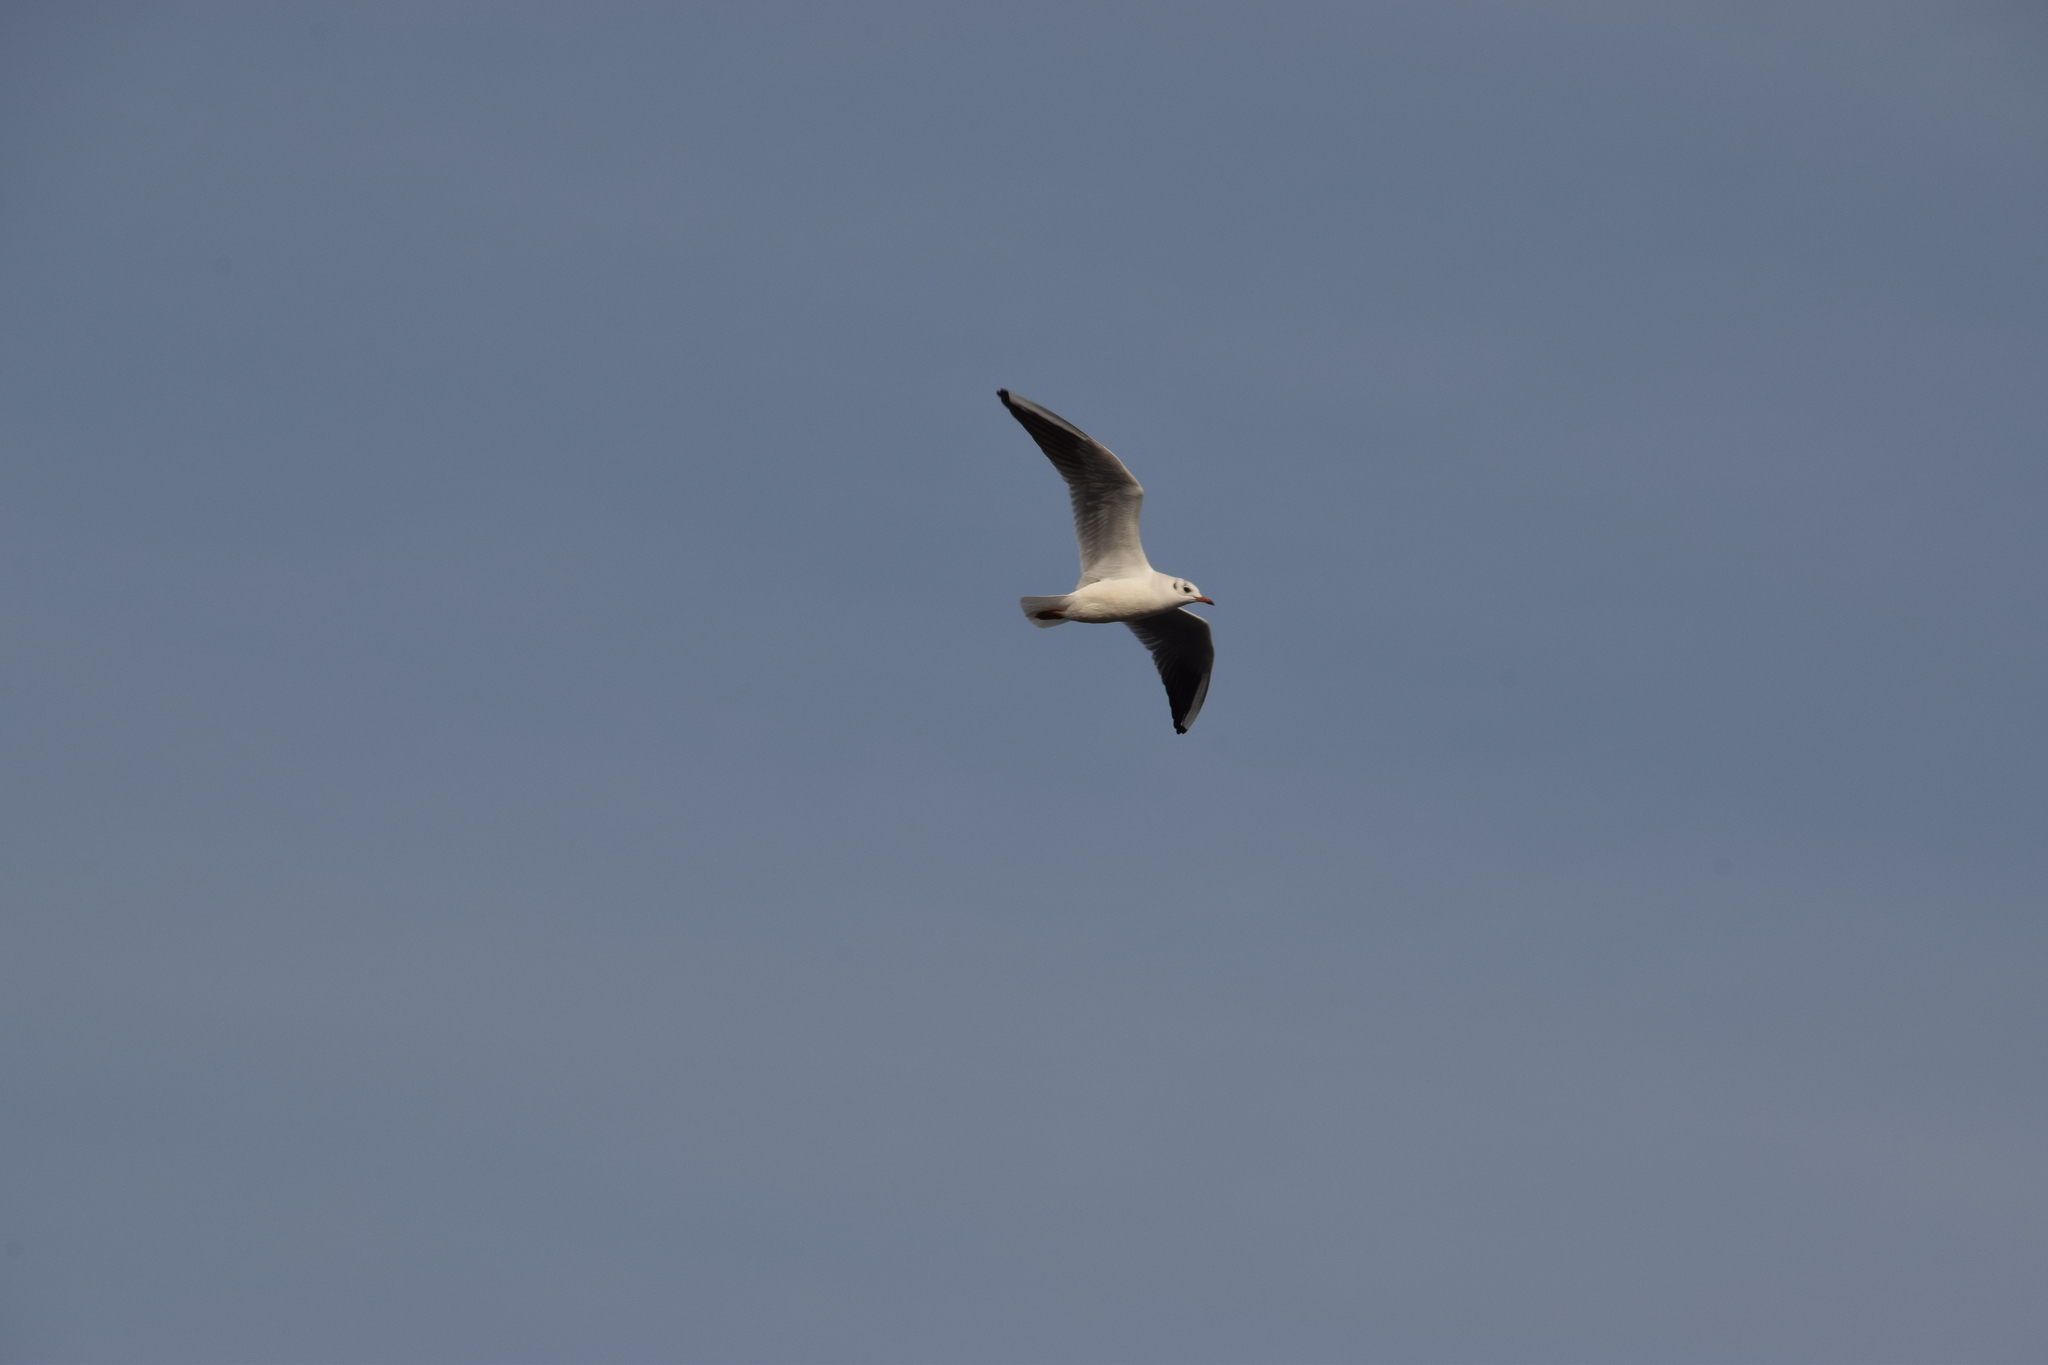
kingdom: Animalia
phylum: Chordata
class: Aves
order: Charadriiformes
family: Laridae
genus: Chroicocephalus
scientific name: Chroicocephalus ridibundus
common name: Black-headed gull
